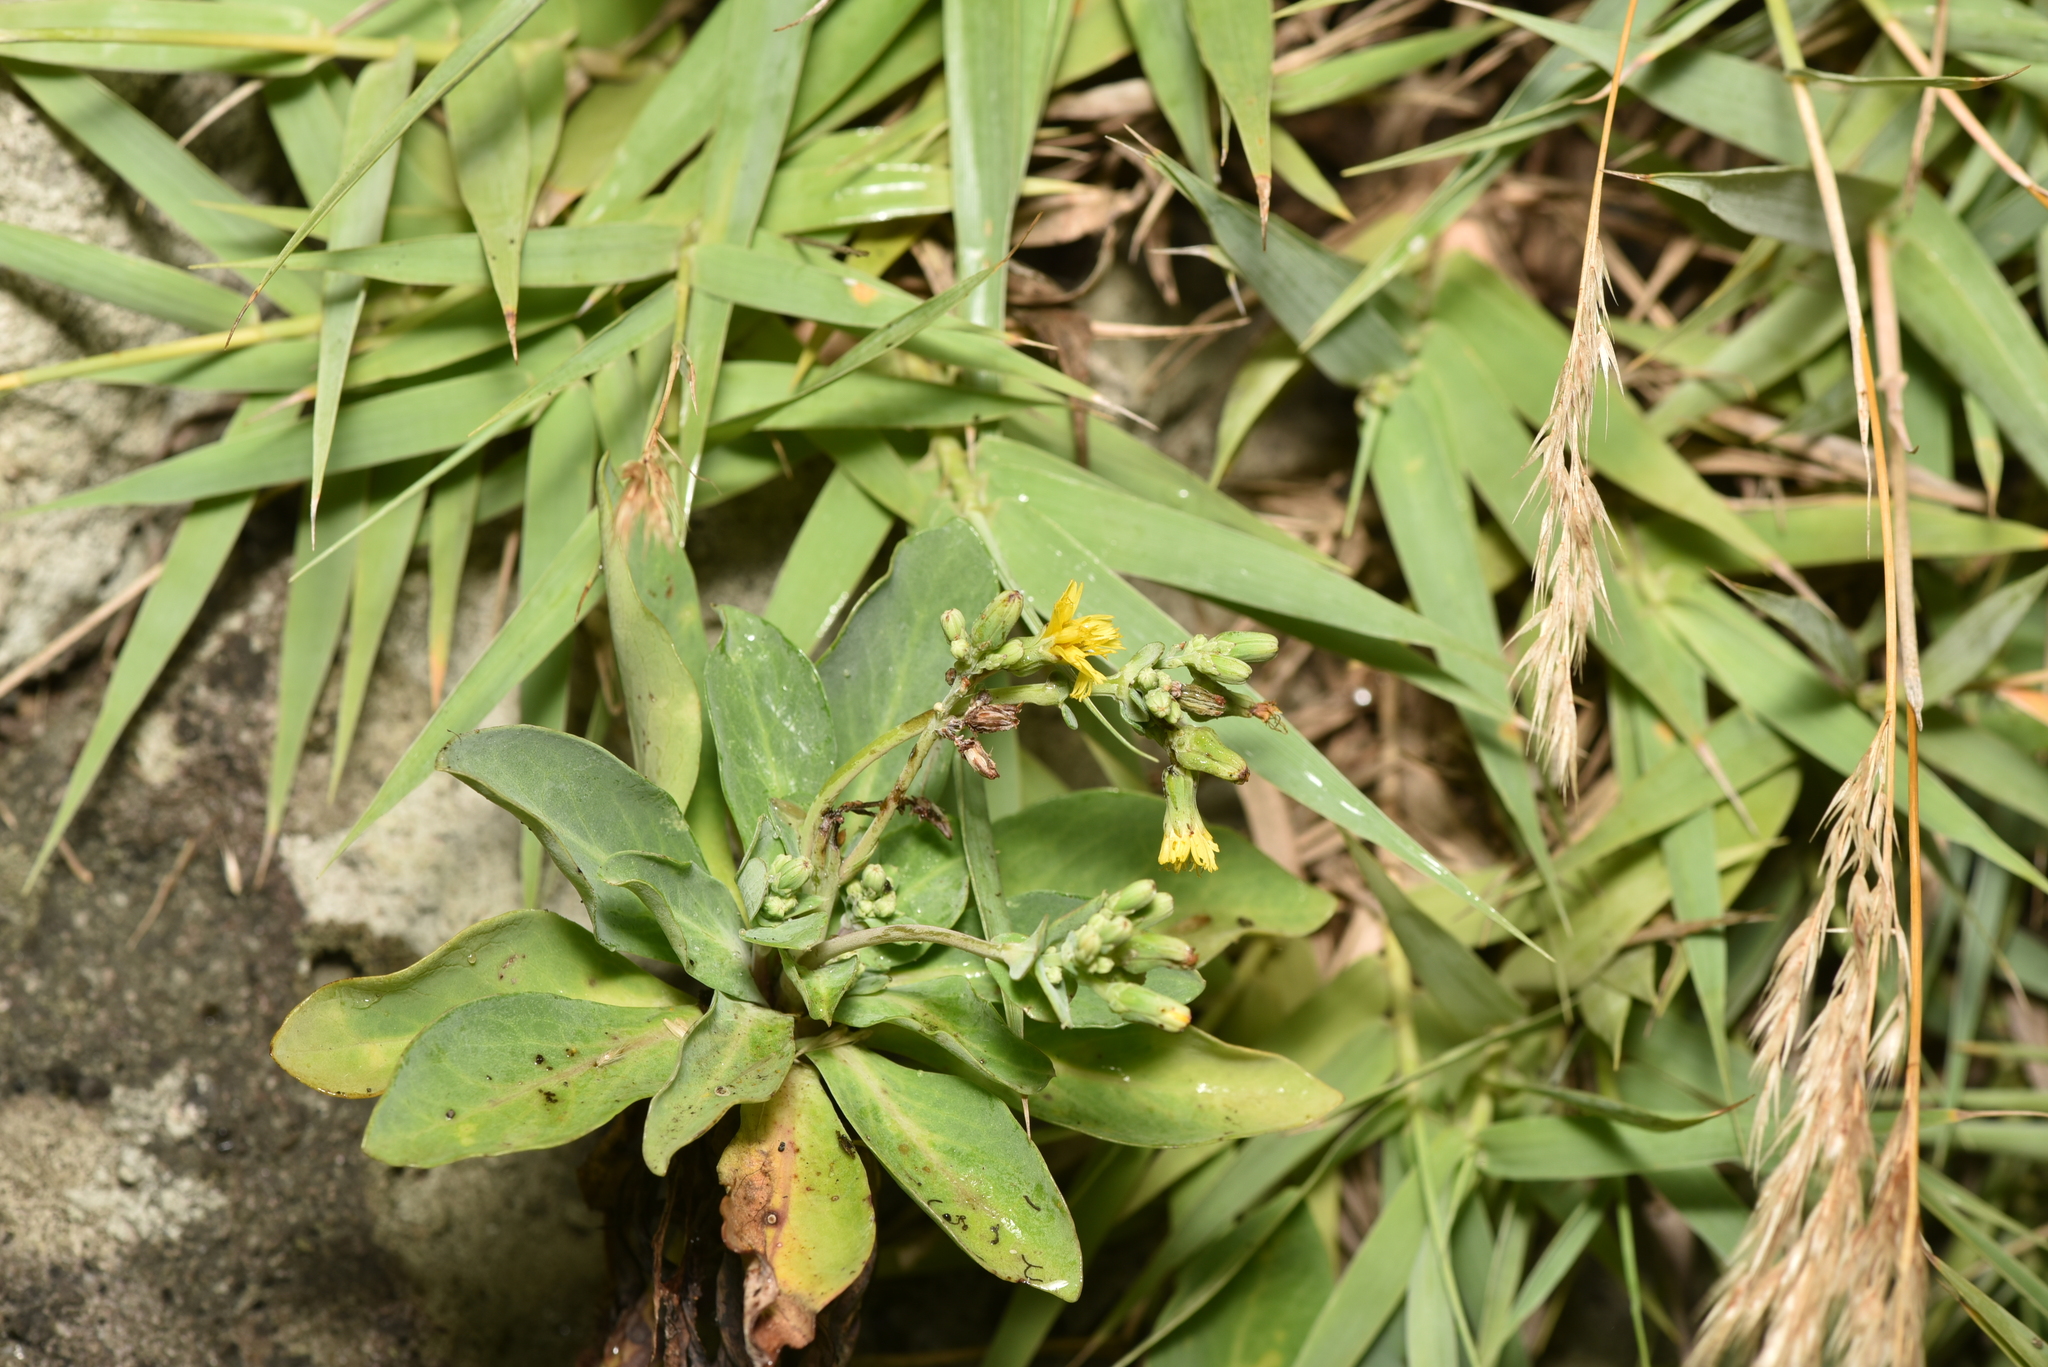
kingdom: Plantae
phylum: Tracheophyta
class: Magnoliopsida
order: Asterales
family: Asteraceae
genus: Crepidiastrum
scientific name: Crepidiastrum taiwanianum
